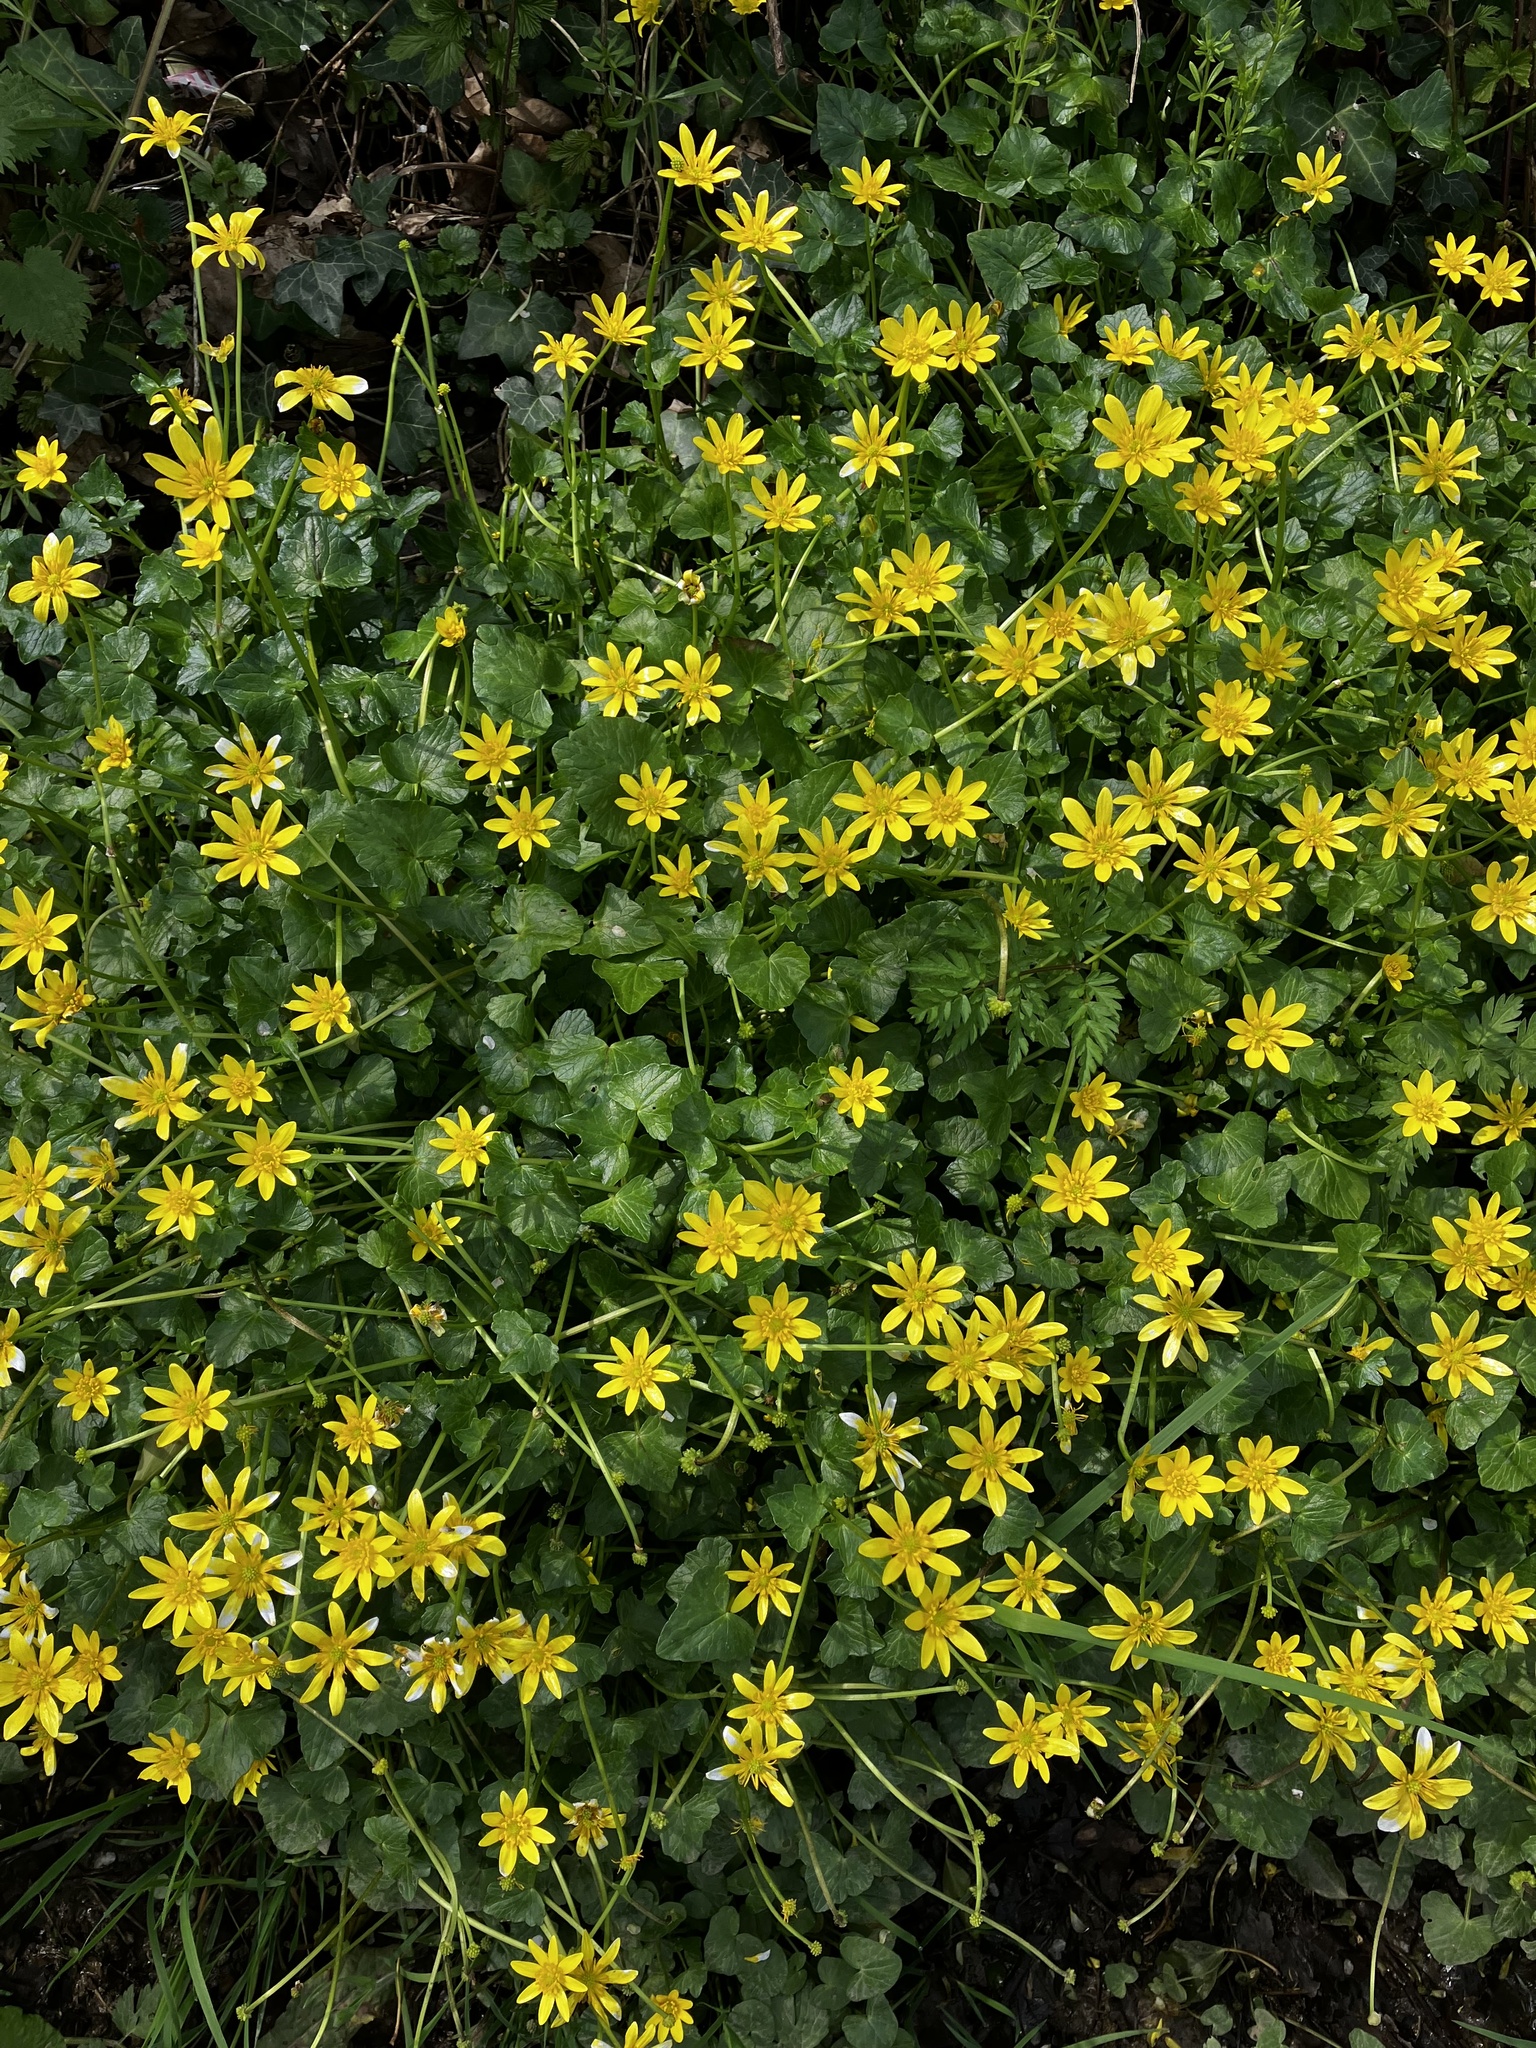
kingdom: Plantae
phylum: Tracheophyta
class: Magnoliopsida
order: Ranunculales
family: Ranunculaceae
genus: Ficaria
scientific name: Ficaria verna
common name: Lesser celandine
